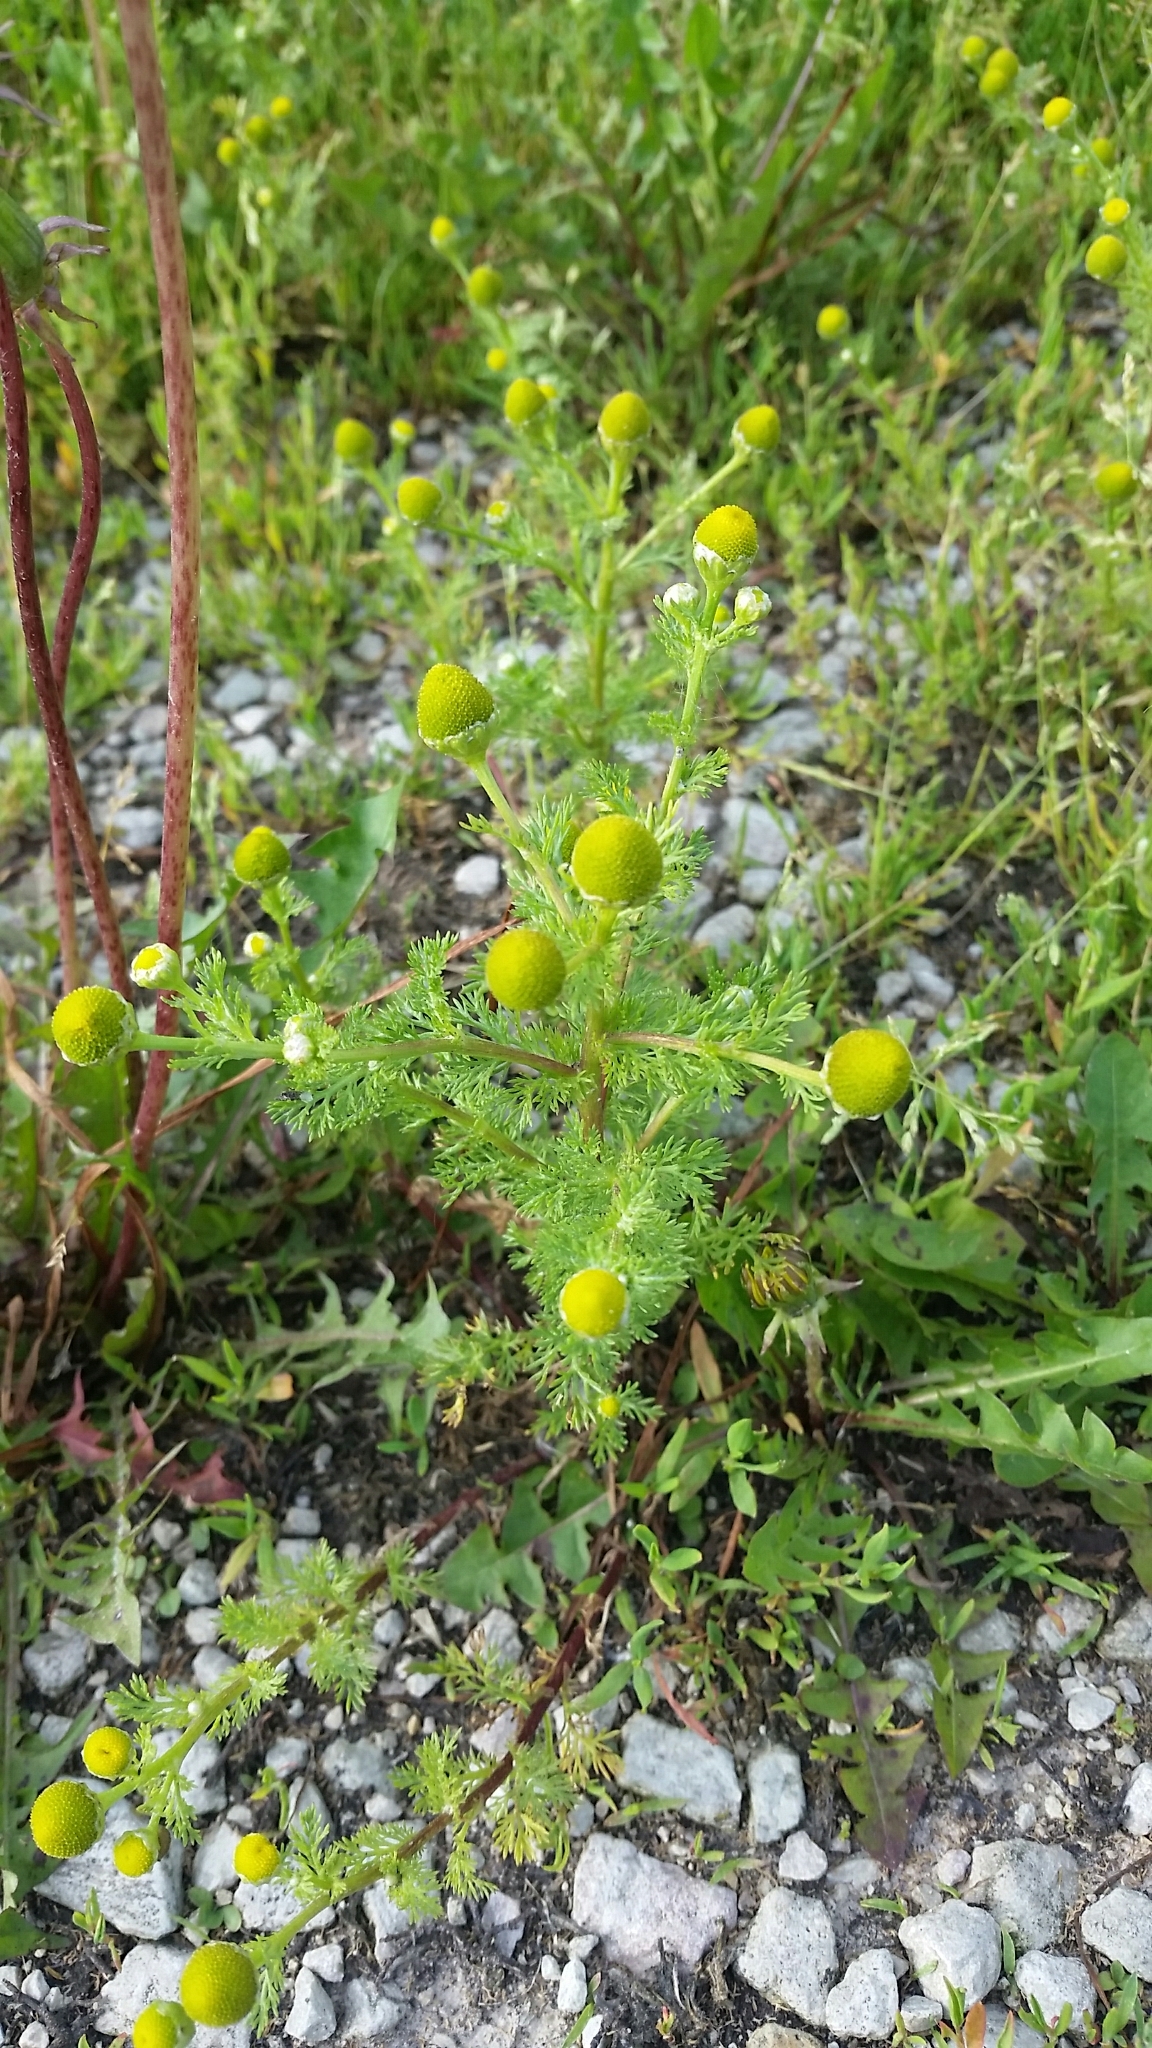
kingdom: Plantae
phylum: Tracheophyta
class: Magnoliopsida
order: Asterales
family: Asteraceae
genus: Matricaria
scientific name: Matricaria discoidea
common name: Disc mayweed
